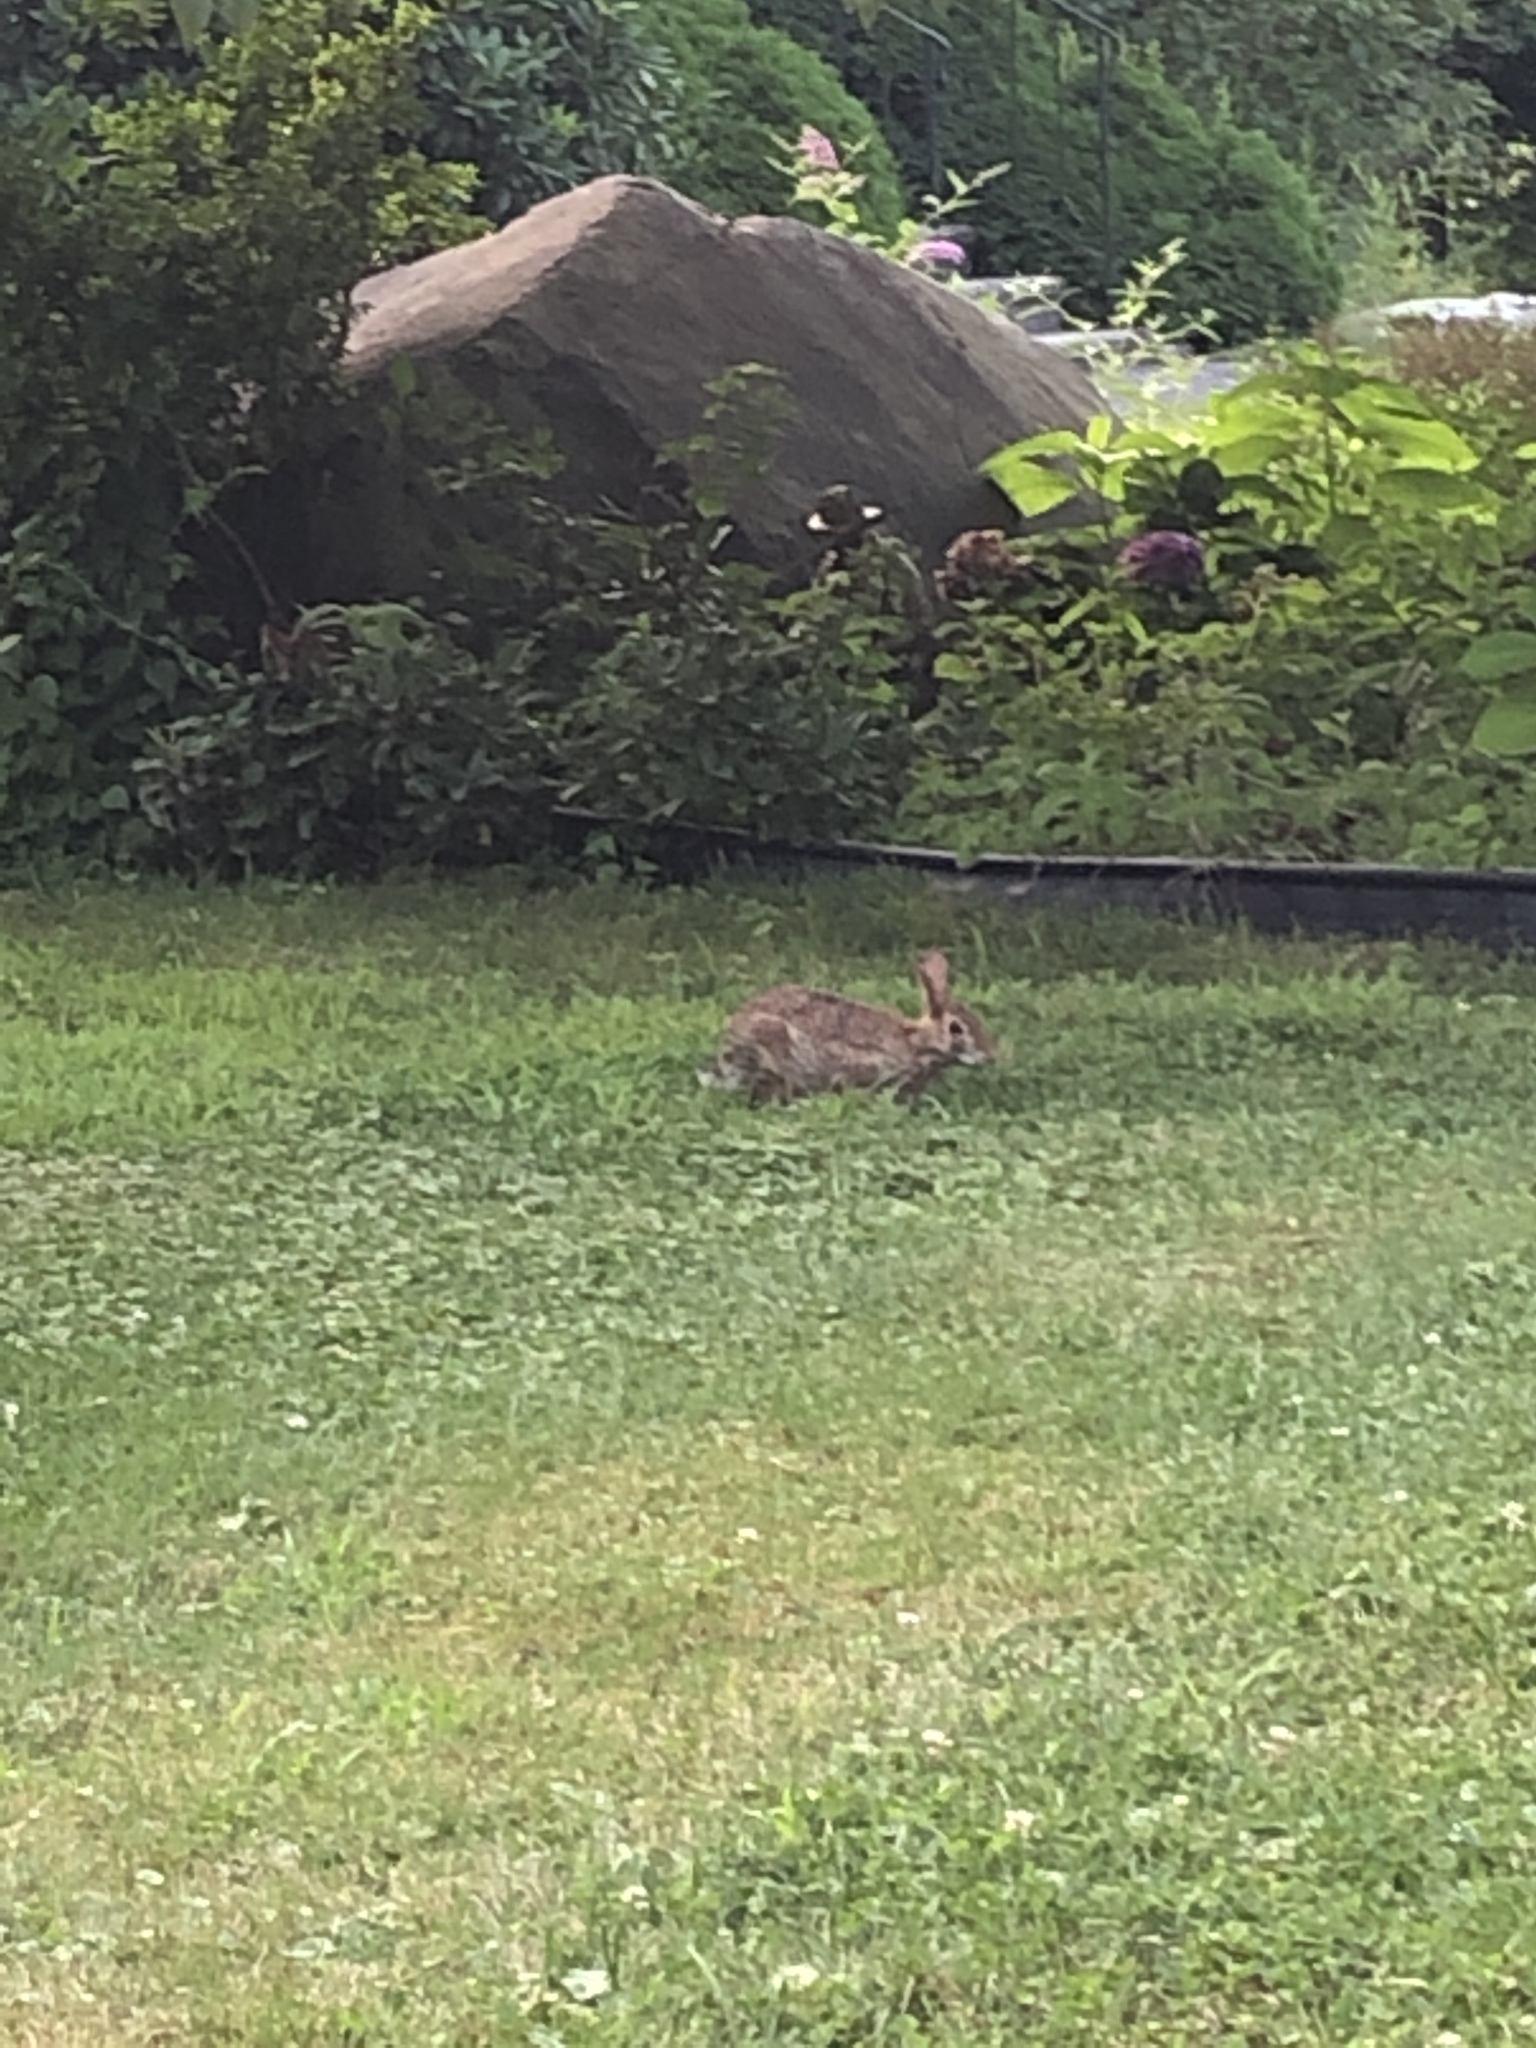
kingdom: Animalia
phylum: Chordata
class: Mammalia
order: Lagomorpha
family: Leporidae
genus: Sylvilagus
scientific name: Sylvilagus floridanus
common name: Eastern cottontail
